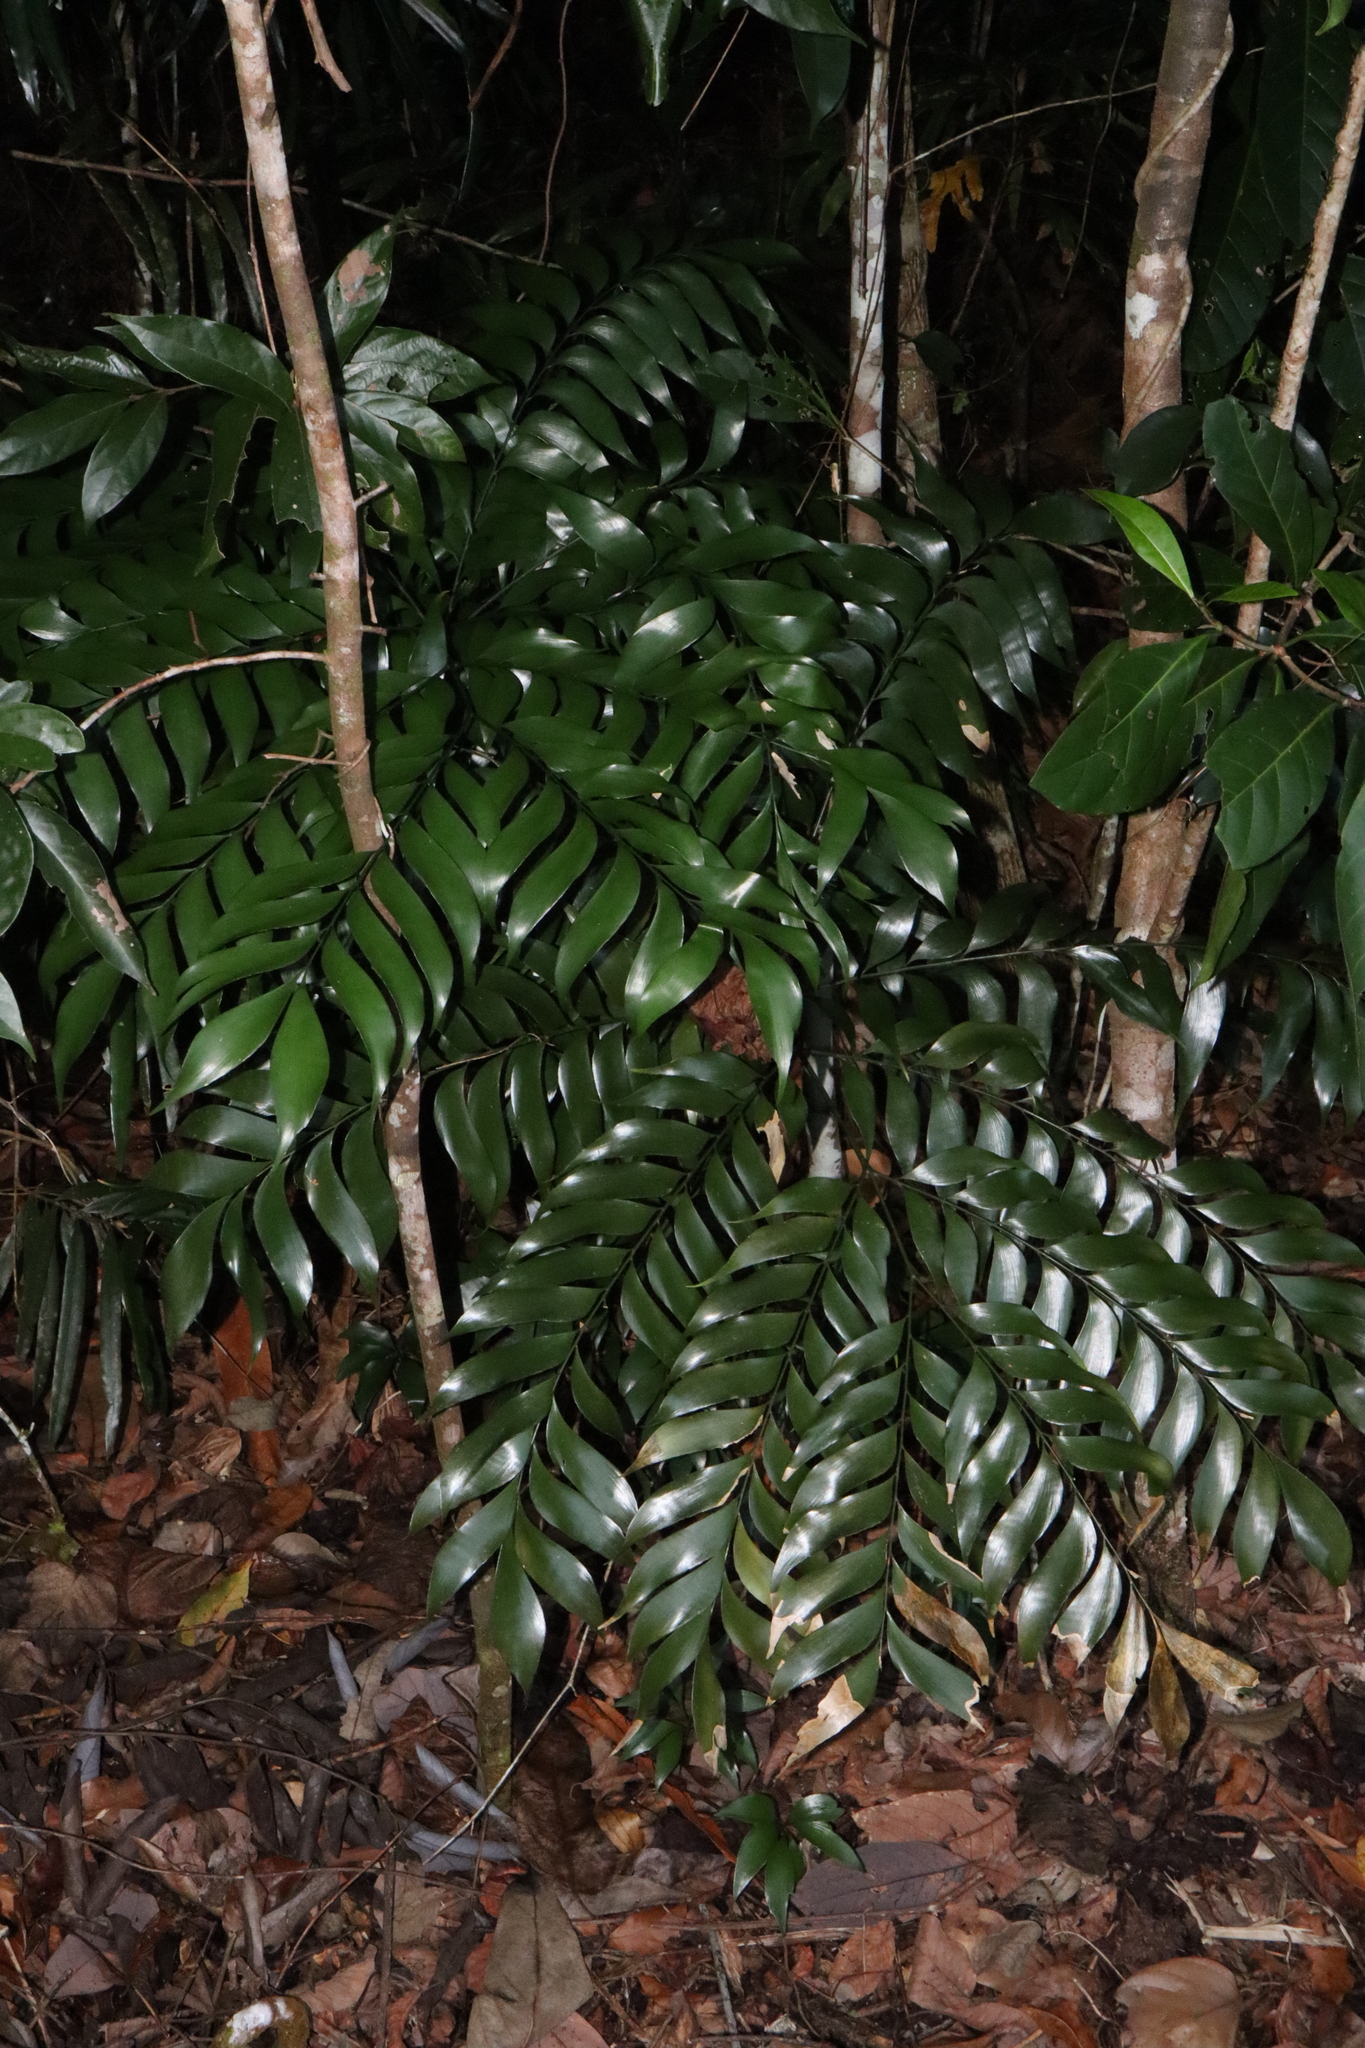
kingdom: Plantae
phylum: Tracheophyta
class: Cycadopsida
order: Cycadales
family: Zamiaceae
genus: Bowenia
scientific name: Bowenia spectabilis
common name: Zamia-fern
